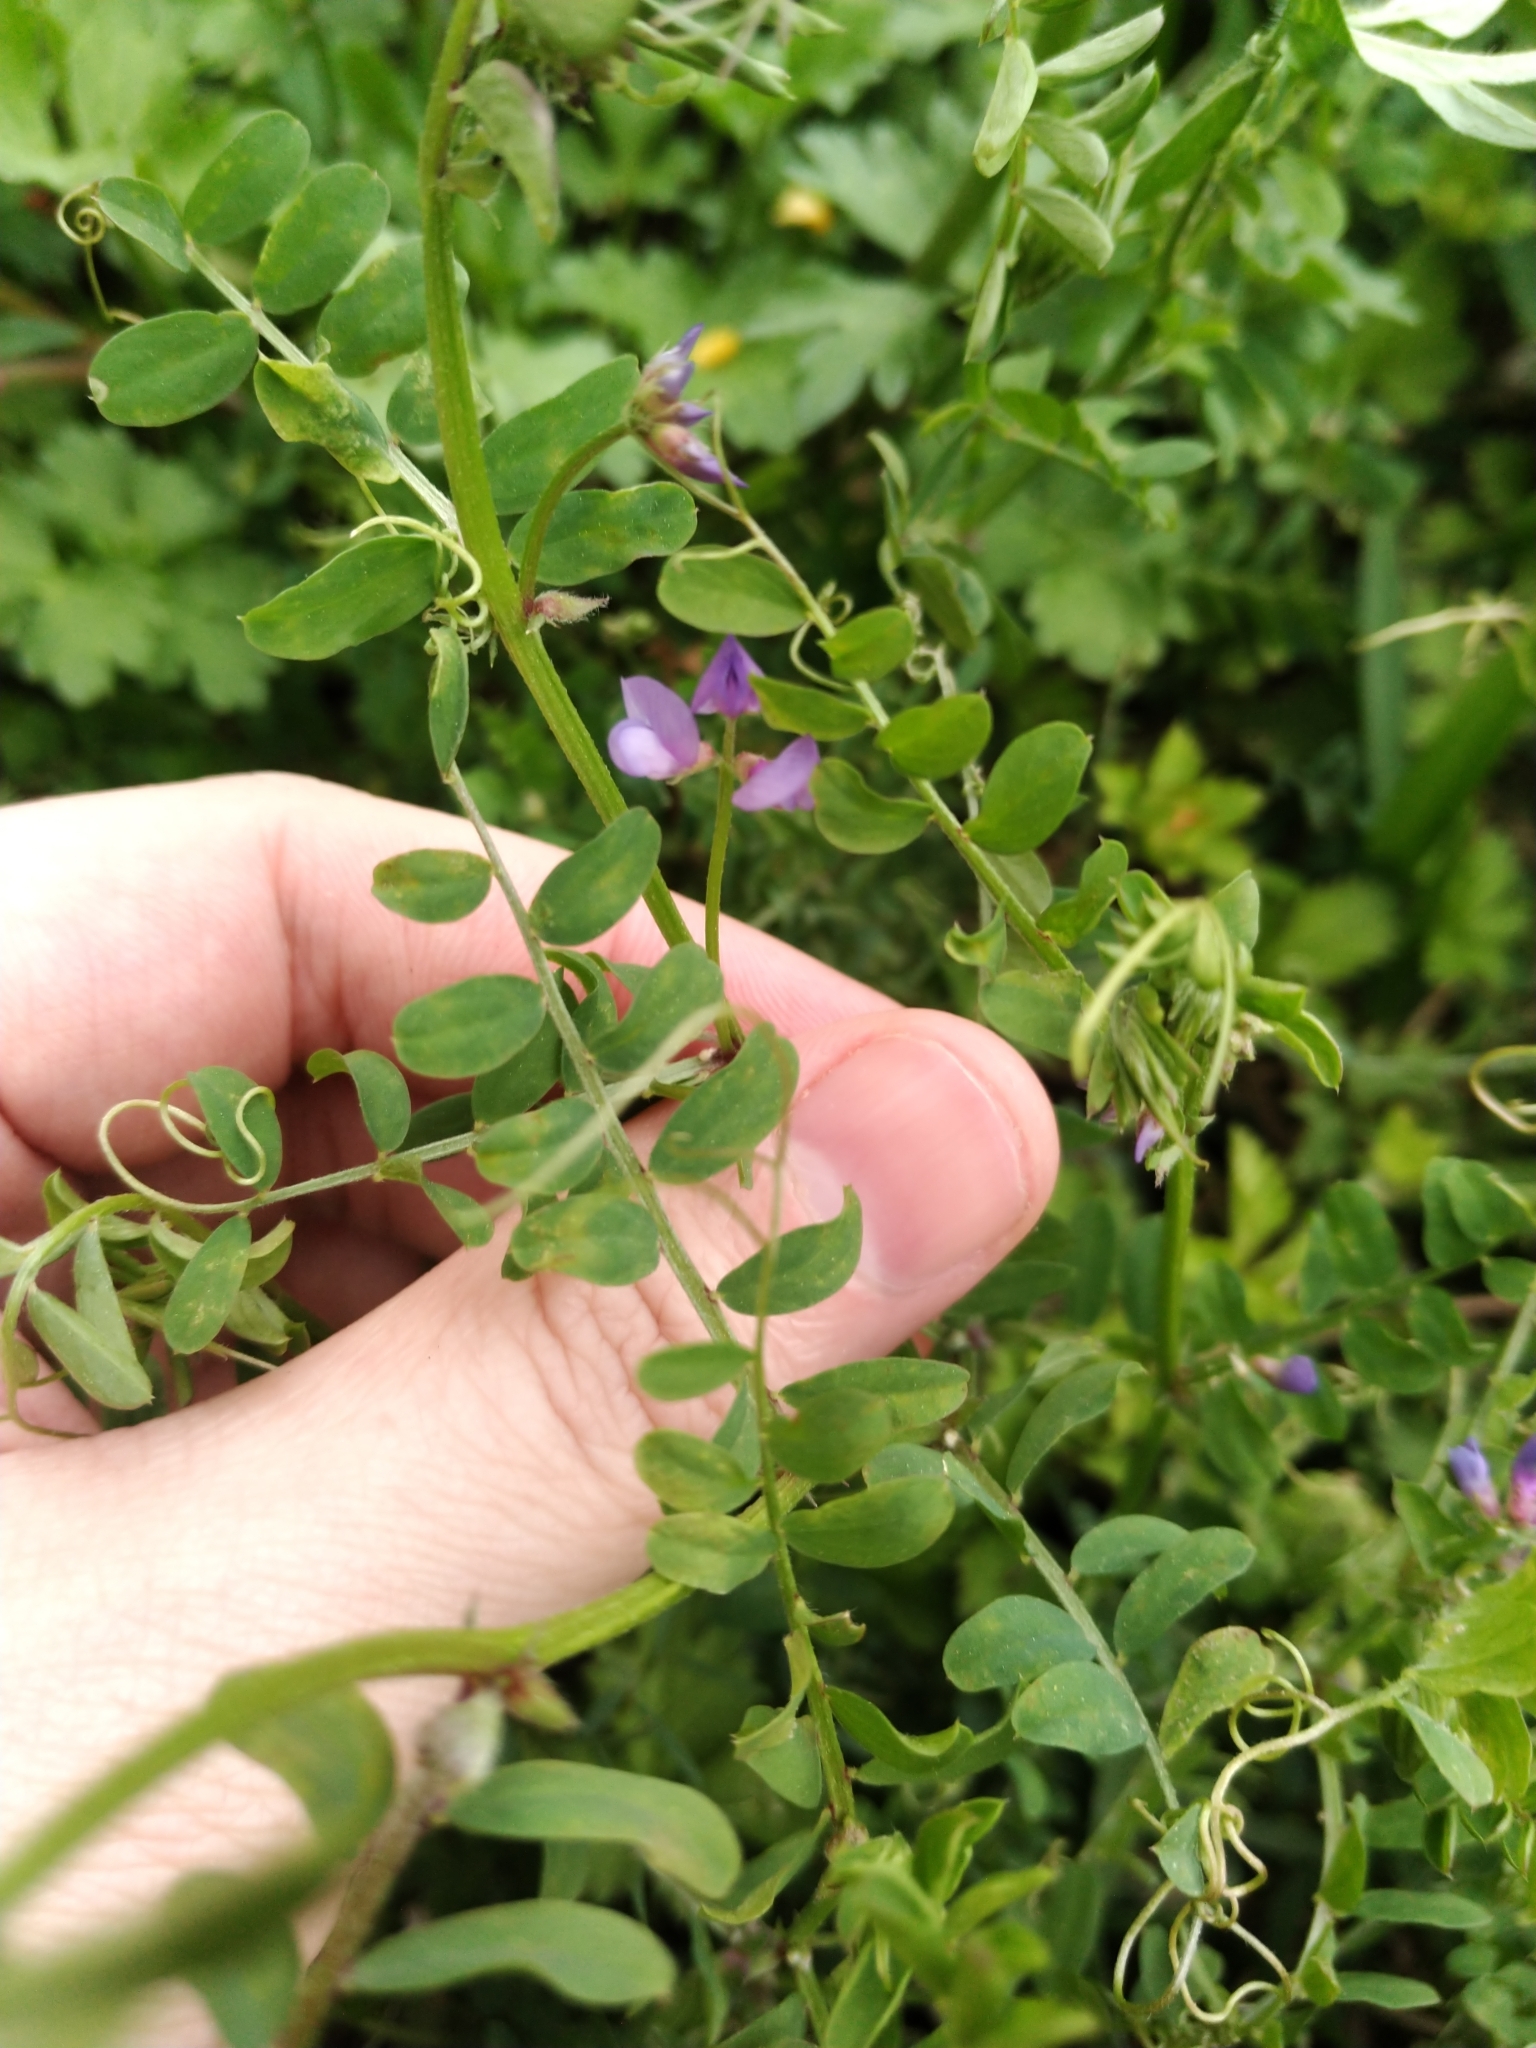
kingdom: Plantae
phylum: Tracheophyta
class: Magnoliopsida
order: Fabales
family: Fabaceae
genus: Vicia
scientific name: Vicia ludoviciana
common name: Louisiana vetch
